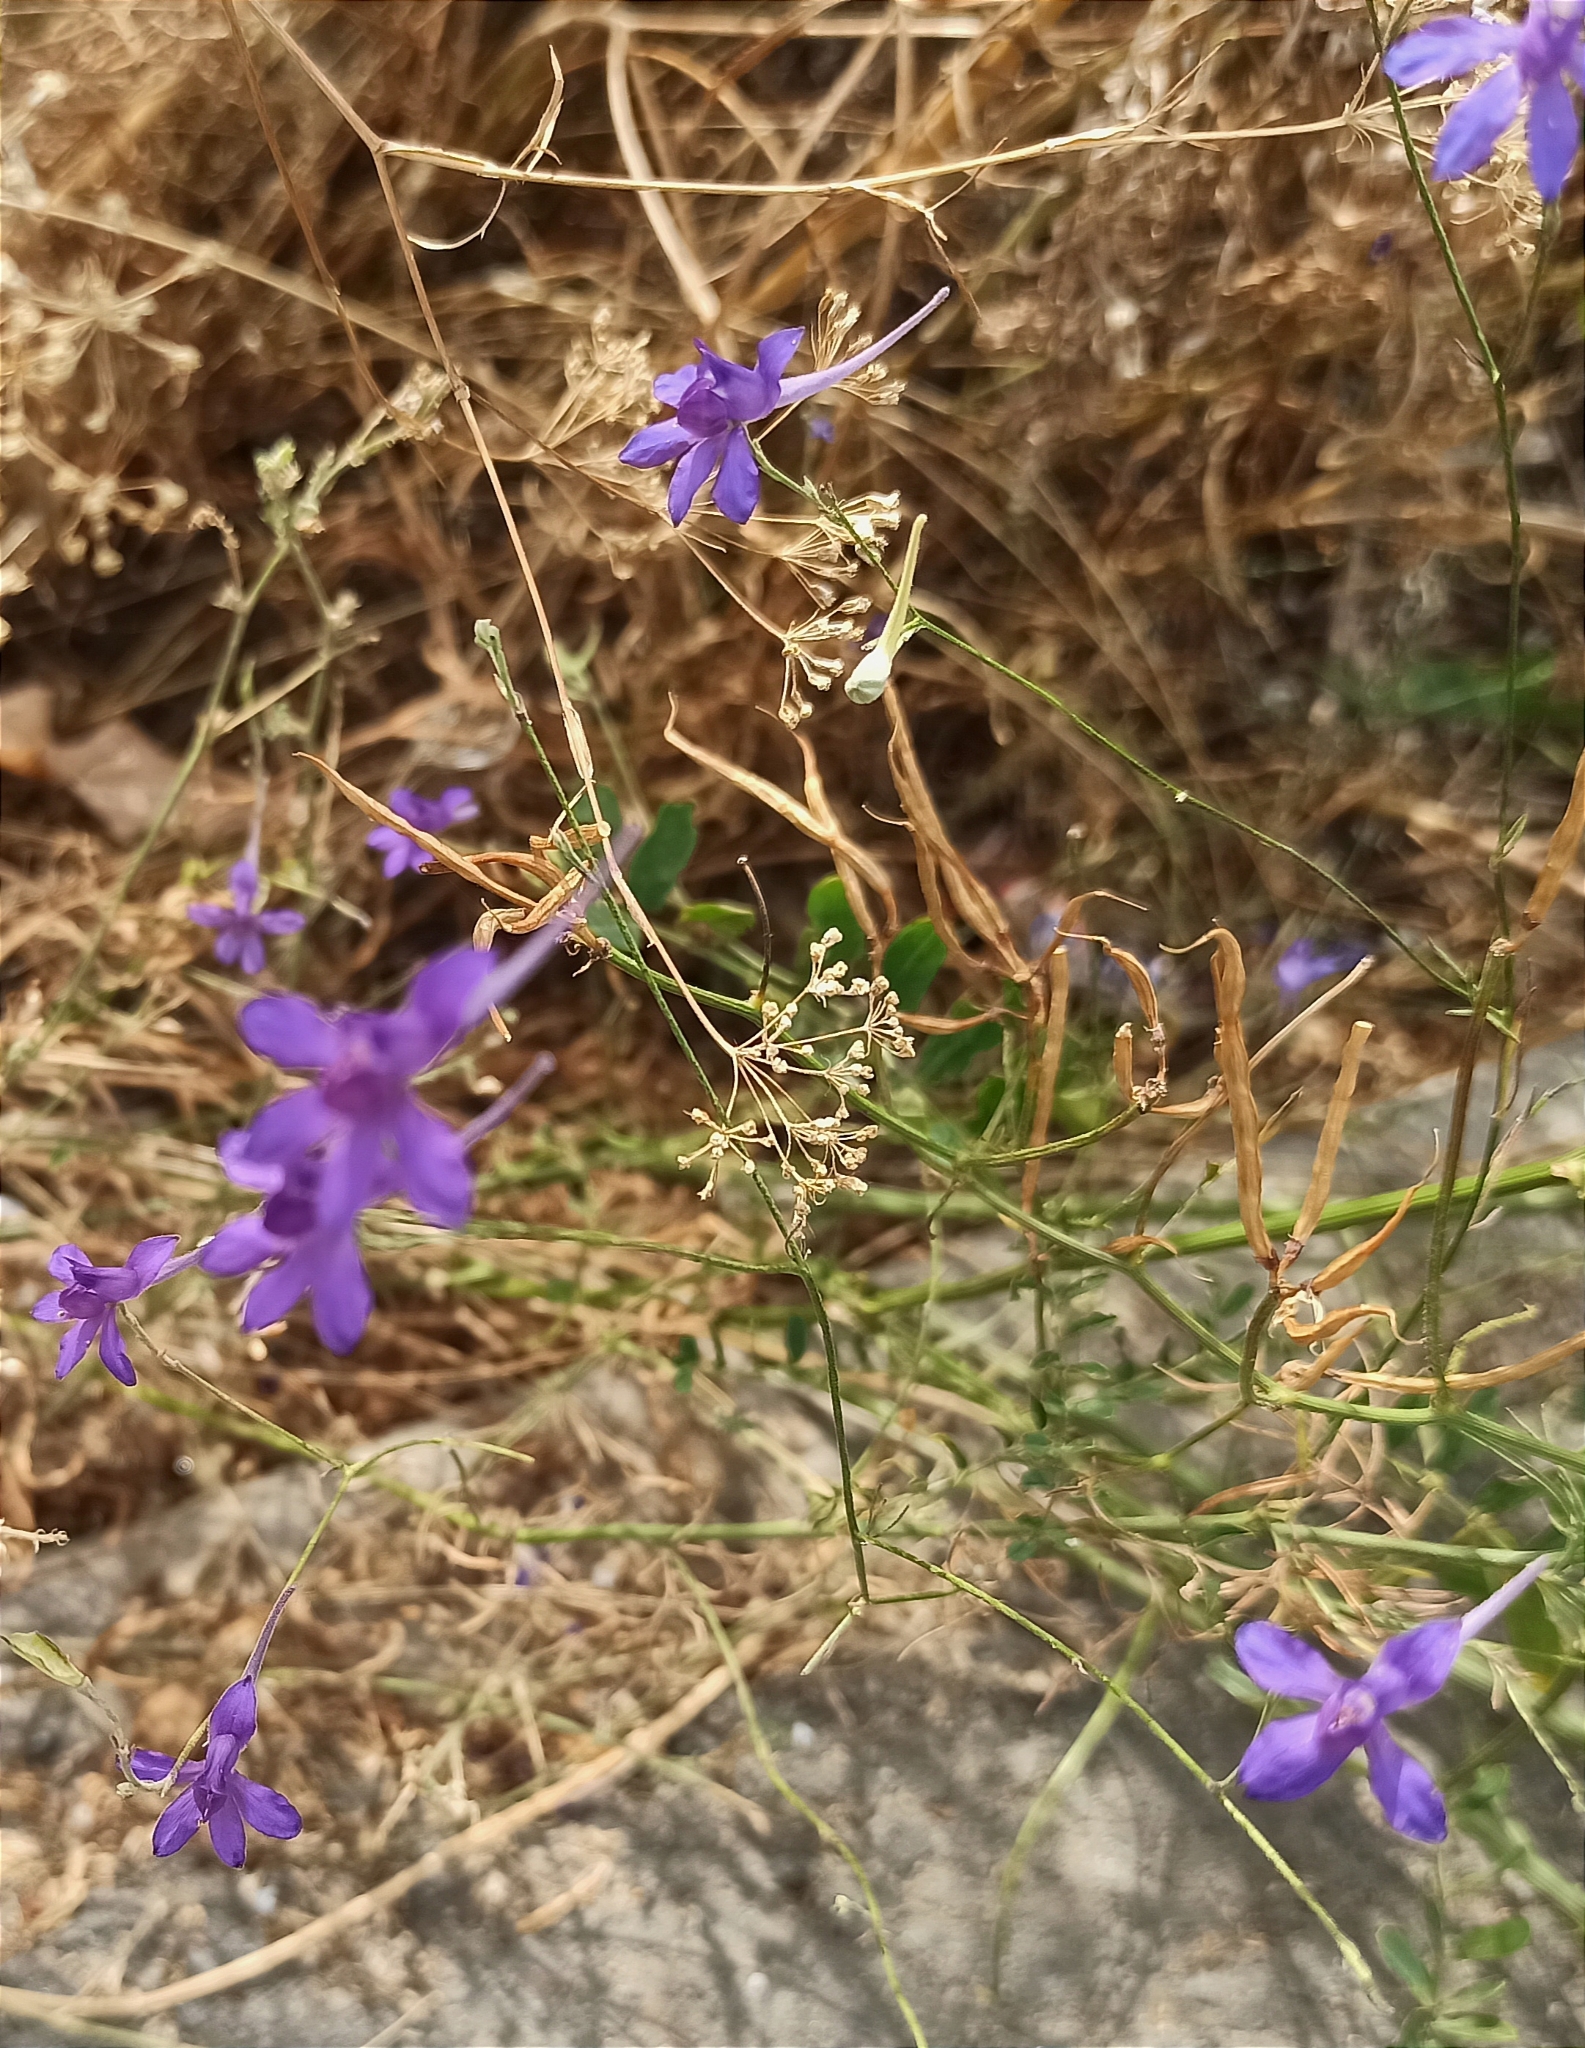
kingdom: Plantae
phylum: Tracheophyta
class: Magnoliopsida
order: Ranunculales
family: Ranunculaceae
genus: Delphinium
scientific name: Delphinium consolida
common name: Branching larkspur
